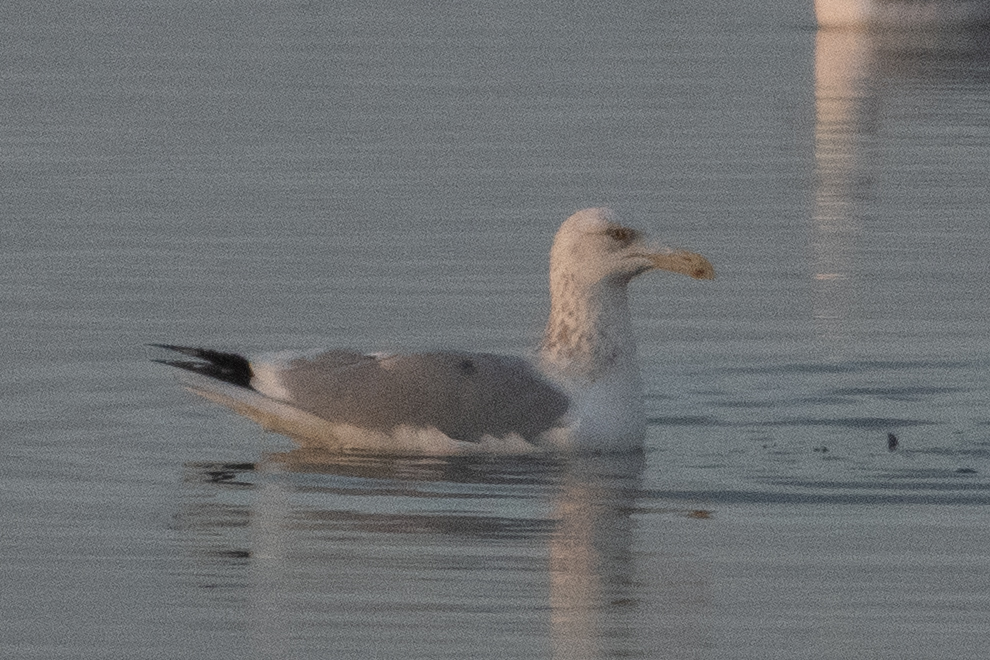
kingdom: Animalia
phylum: Chordata
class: Aves
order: Charadriiformes
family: Laridae
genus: Larus
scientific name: Larus argentatus
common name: Herring gull
